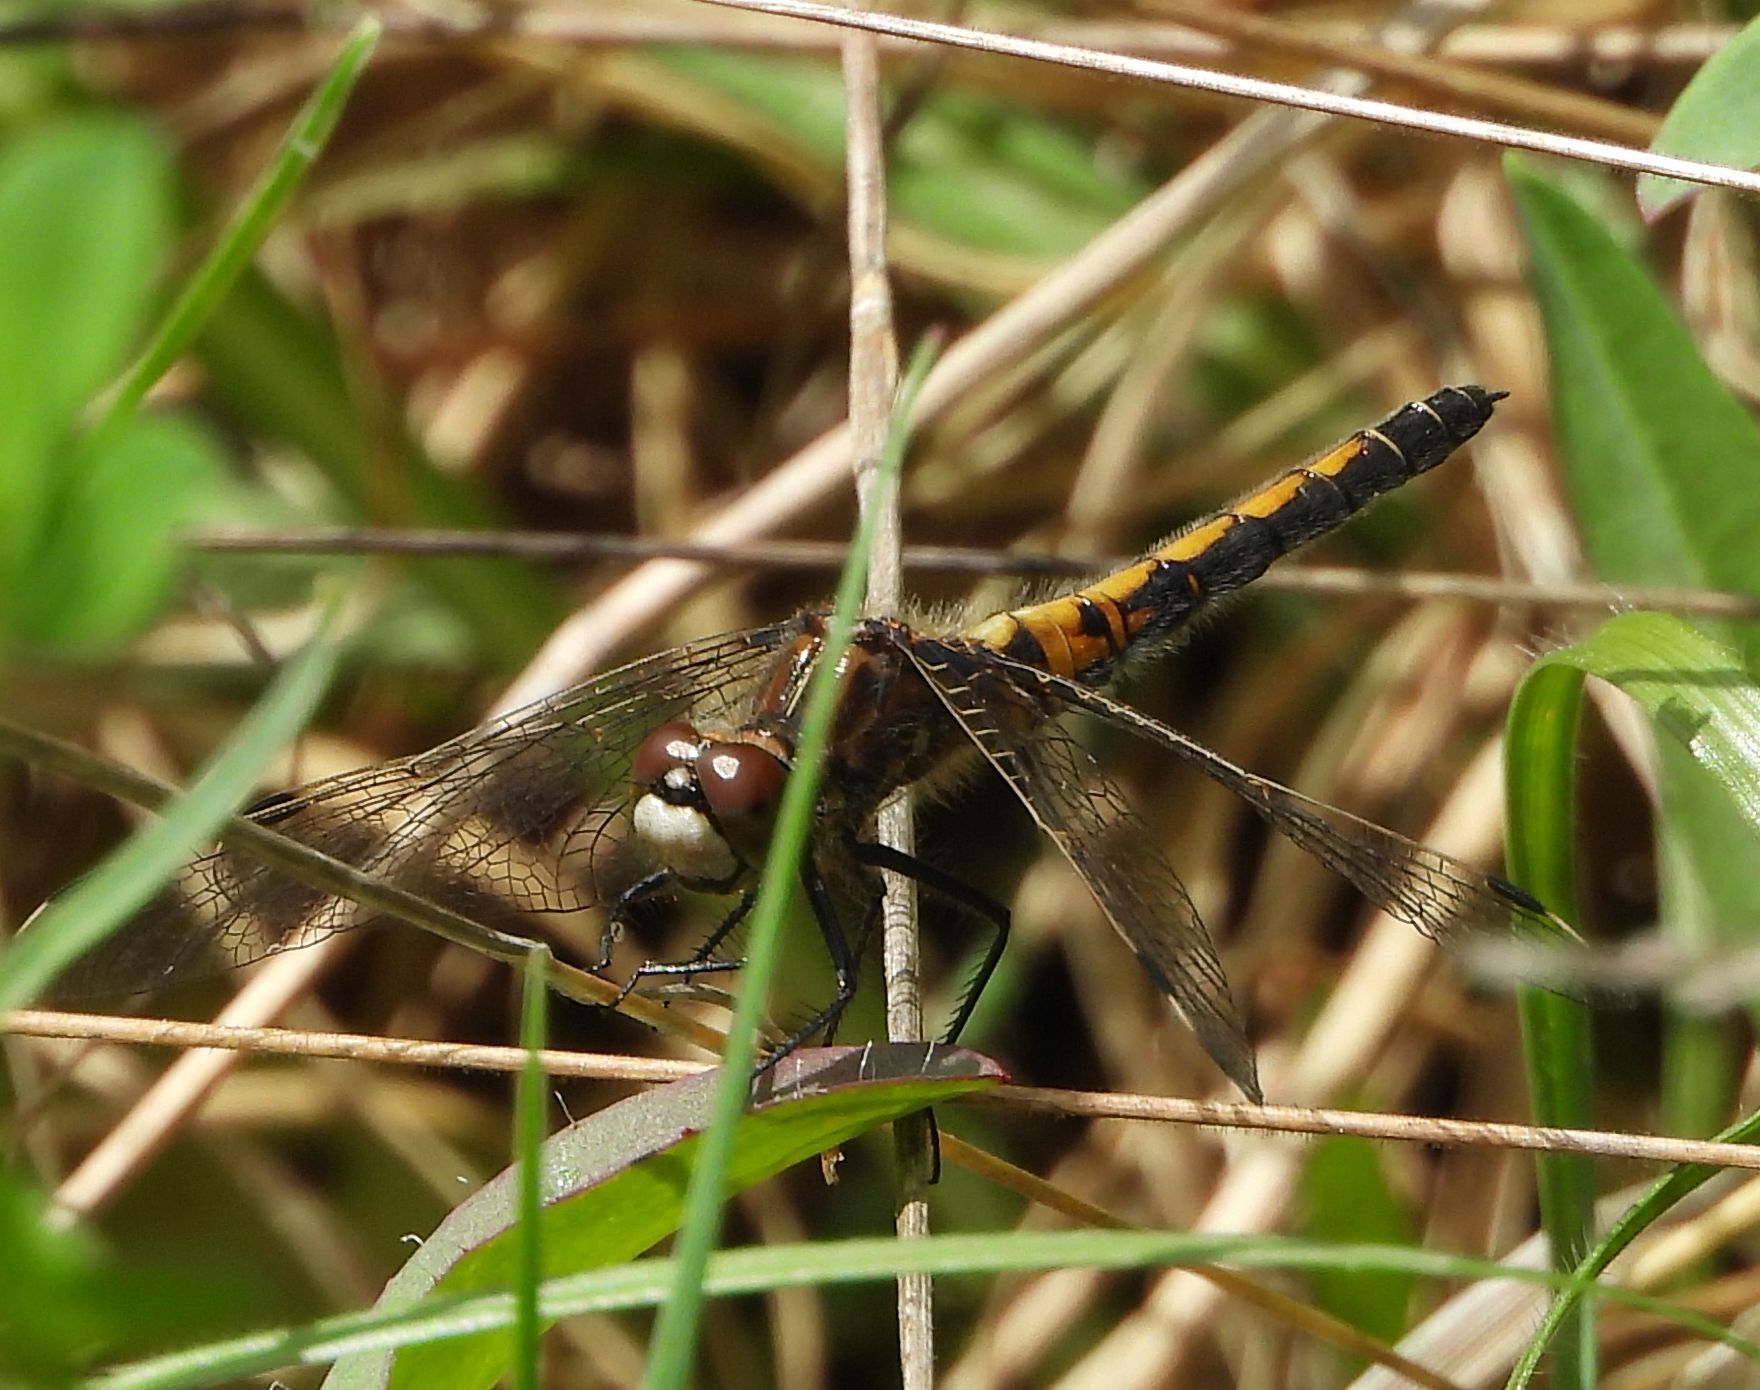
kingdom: Animalia
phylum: Arthropoda
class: Insecta
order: Odonata
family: Libellulidae
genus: Leucorrhinia
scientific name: Leucorrhinia hudsonica
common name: Hudsonian whiteface
